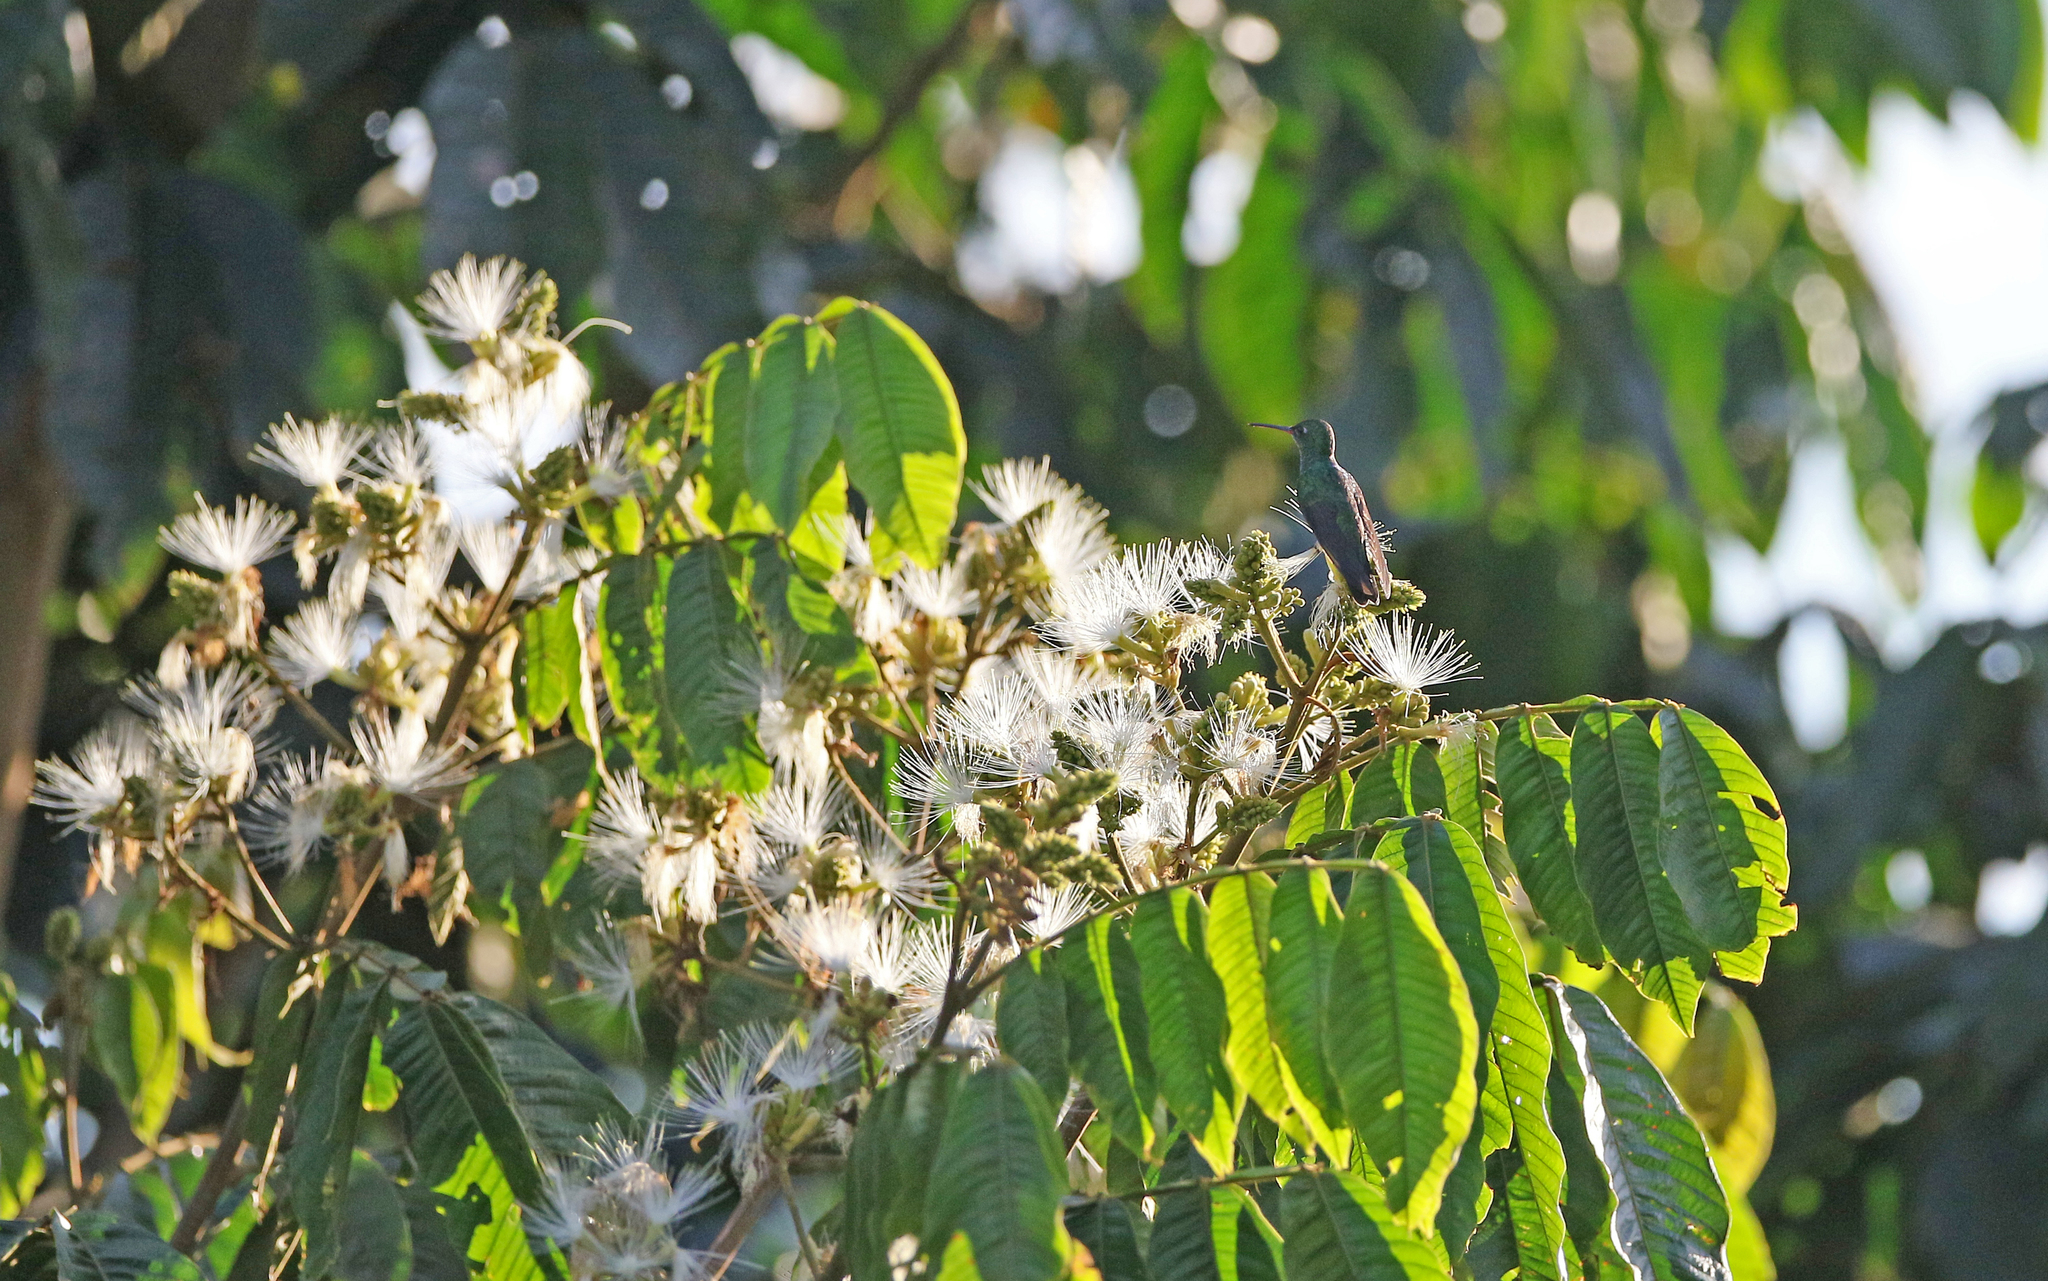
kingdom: Animalia
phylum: Chordata
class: Aves
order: Apodiformes
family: Trochilidae
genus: Chionomesa
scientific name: Chionomesa fimbriata
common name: Glittering-throated emerald
